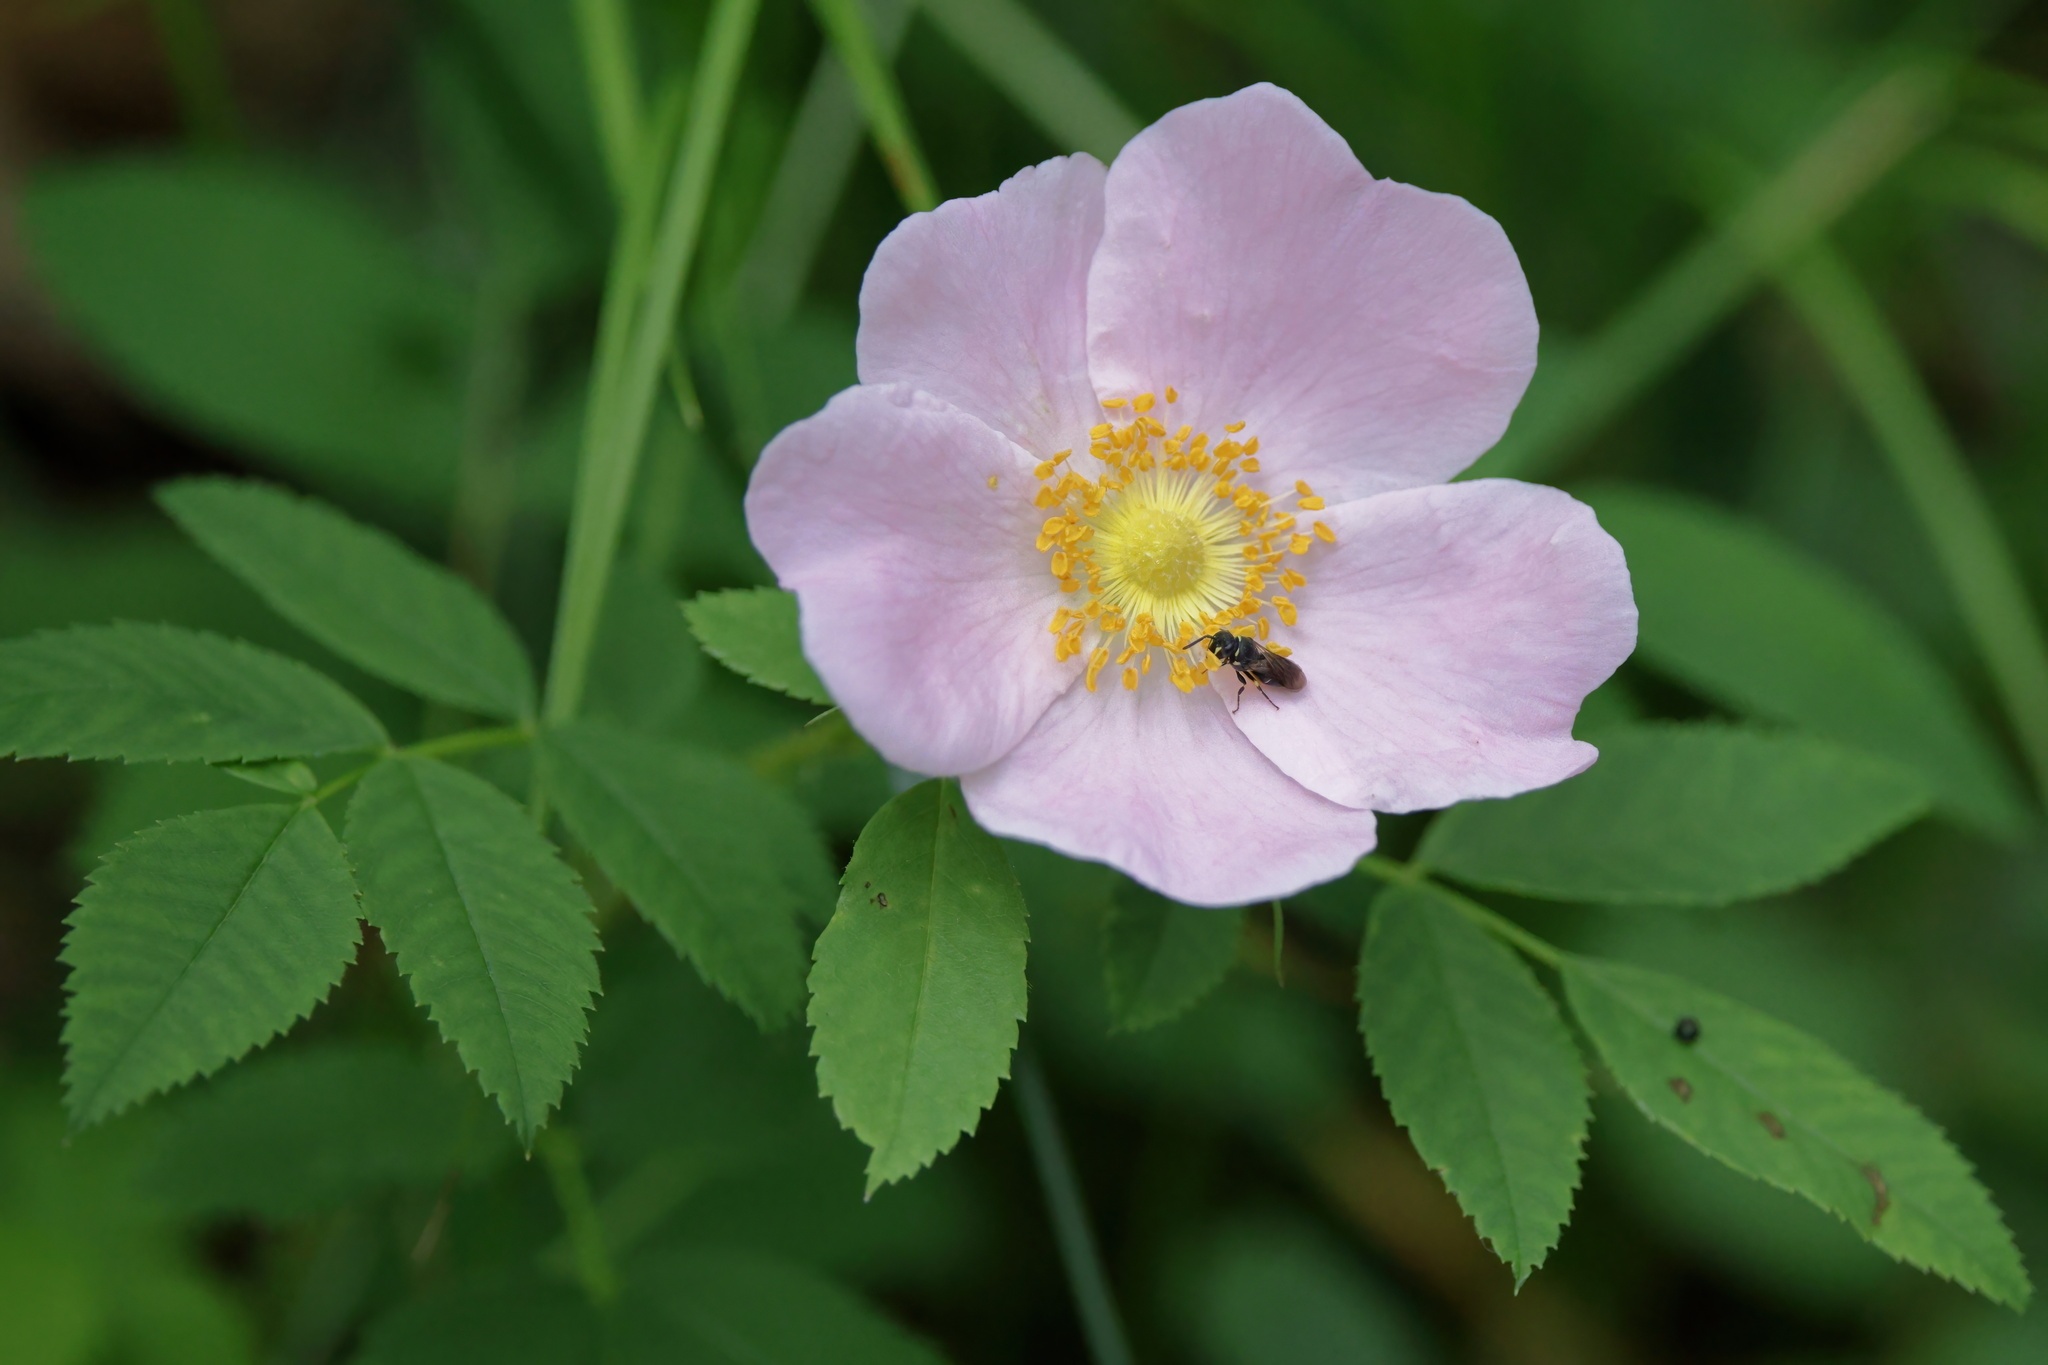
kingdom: Plantae
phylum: Tracheophyta
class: Magnoliopsida
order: Rosales
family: Rosaceae
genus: Rosa
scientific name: Rosa blanda
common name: Smooth rose
